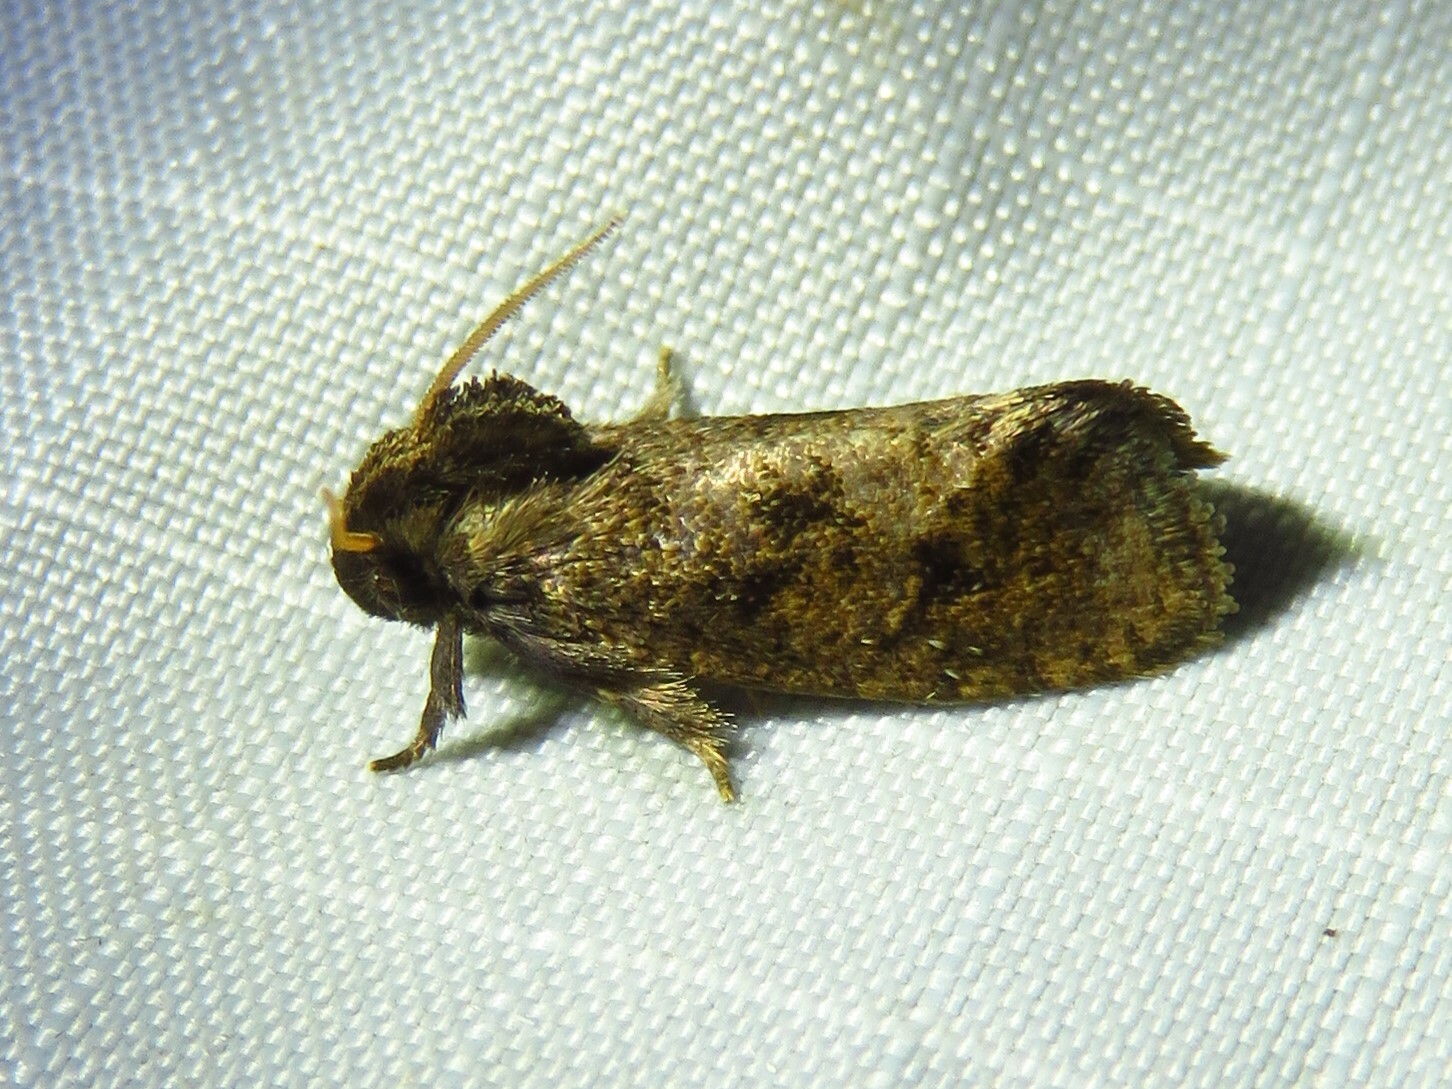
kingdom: Animalia
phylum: Arthropoda
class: Insecta
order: Lepidoptera
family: Tineidae
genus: Acrolophus
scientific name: Acrolophus texanella
